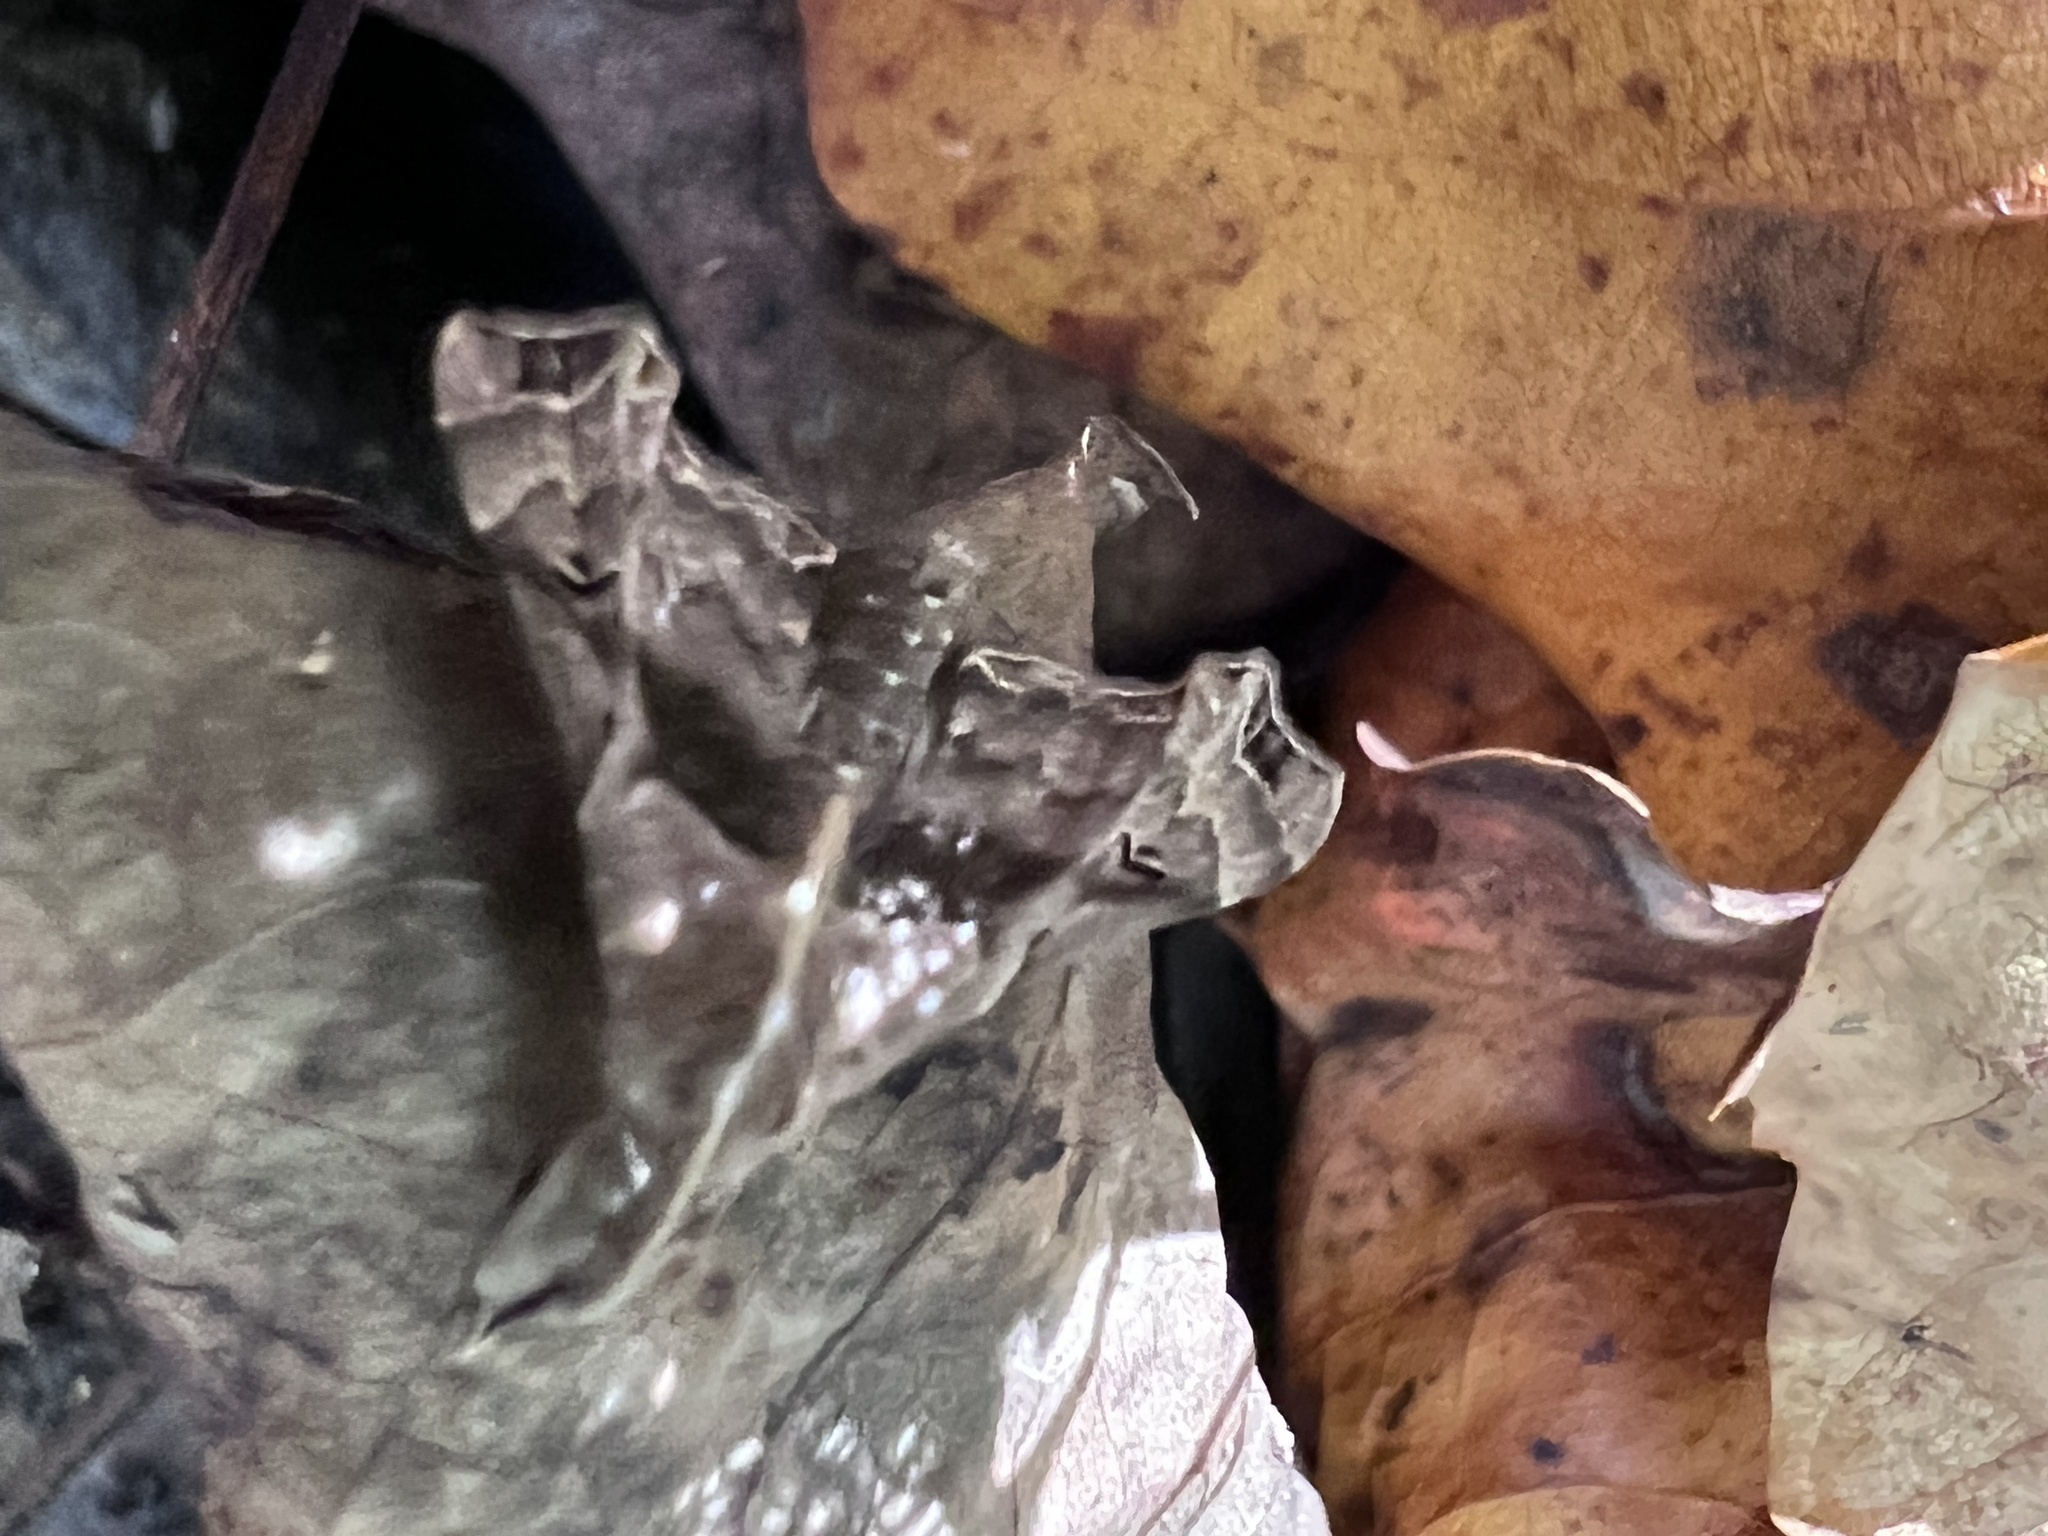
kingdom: Animalia
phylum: Arthropoda
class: Insecta
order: Lepidoptera
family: Erebidae
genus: Palthis
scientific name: Palthis asopialis
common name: Faint-spotted palthis moth
